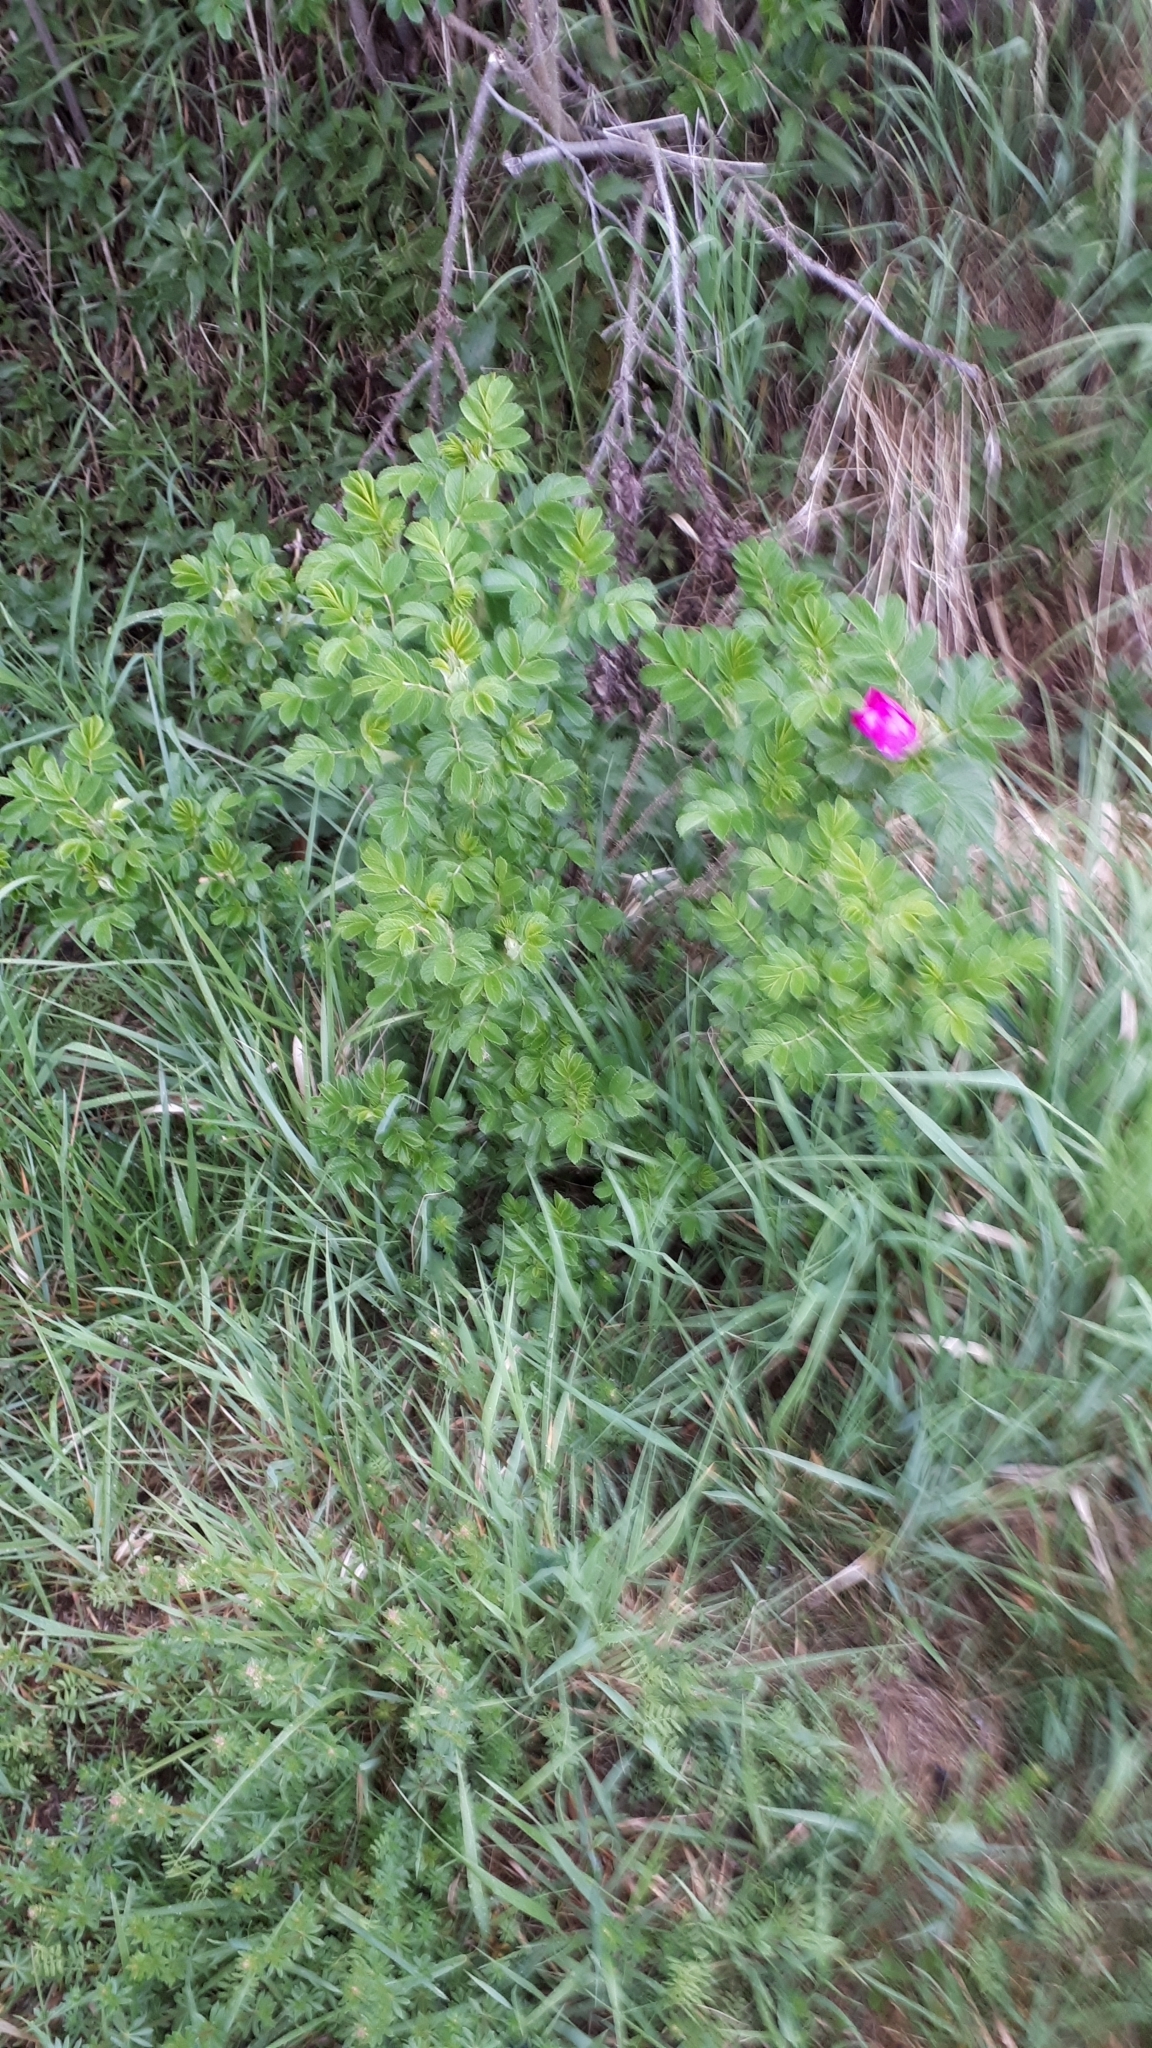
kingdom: Plantae
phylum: Tracheophyta
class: Magnoliopsida
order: Rosales
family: Rosaceae
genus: Rosa
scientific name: Rosa rugosa
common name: Japanese rose
